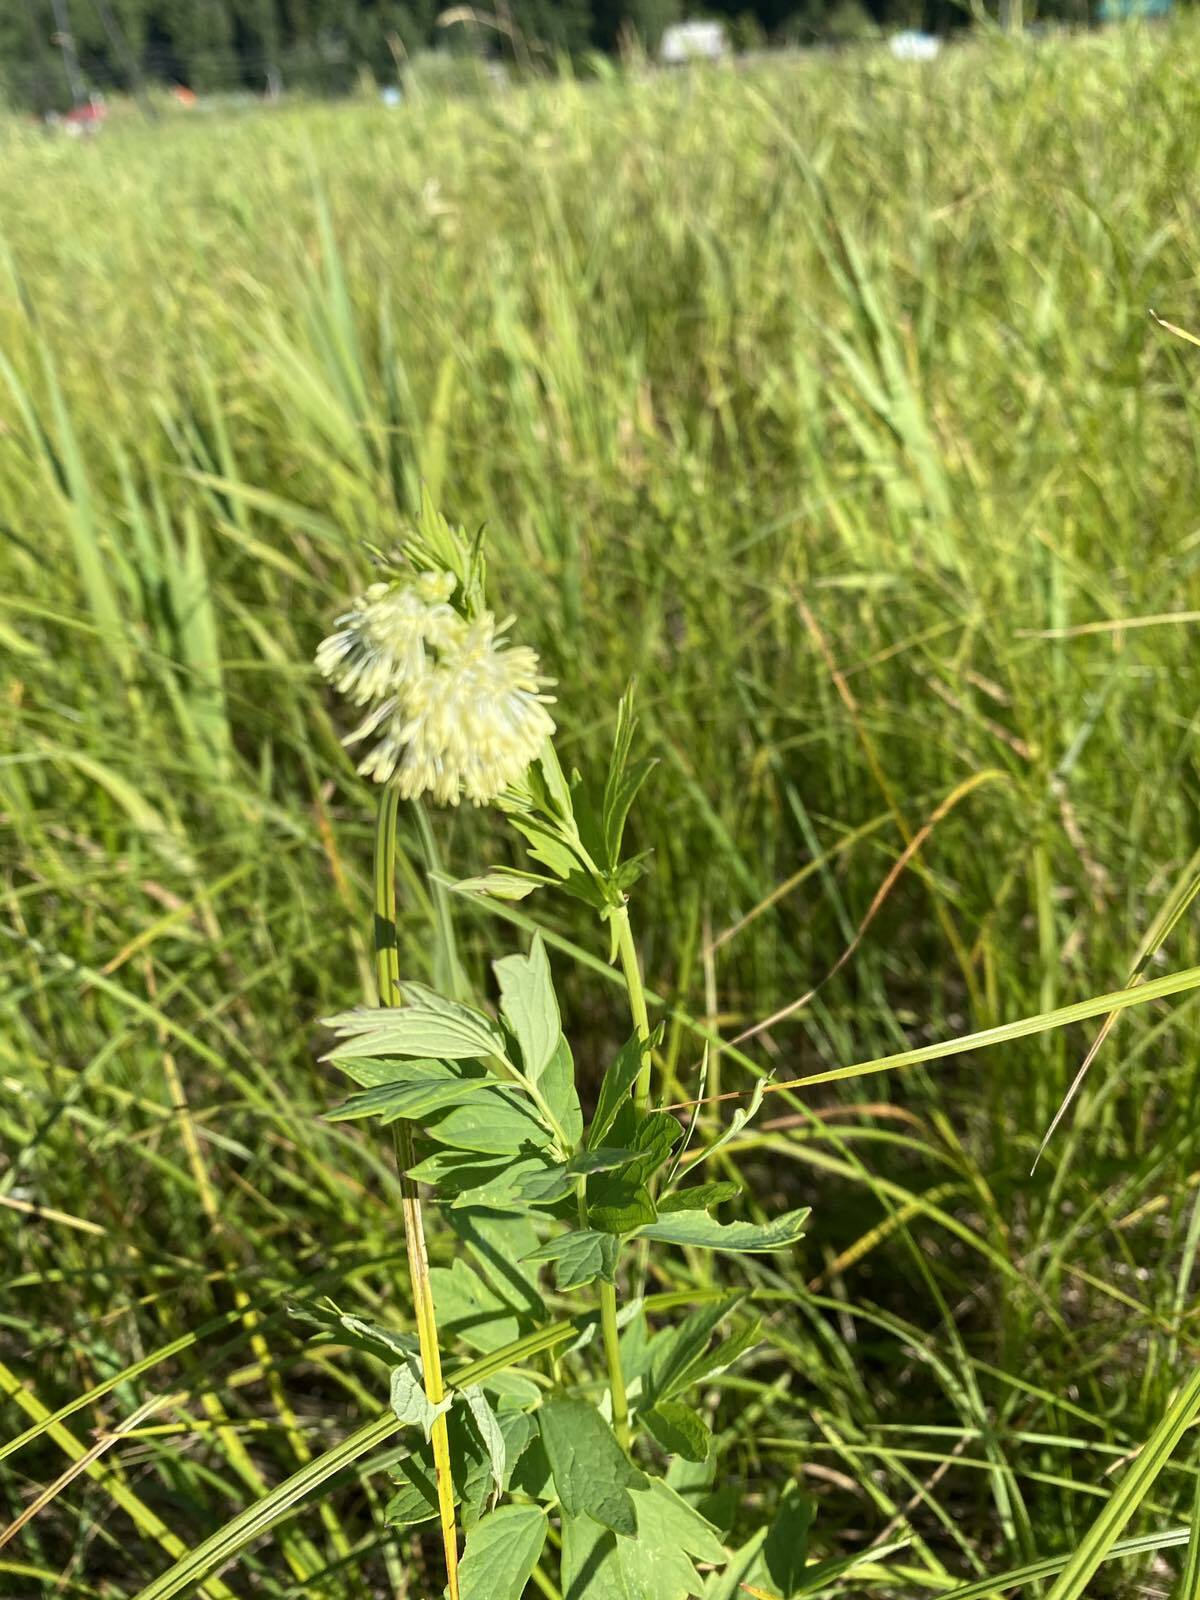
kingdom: Plantae
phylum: Tracheophyta
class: Magnoliopsida
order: Ranunculales
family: Ranunculaceae
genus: Thalictrum
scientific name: Thalictrum flavum
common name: Common meadow-rue
